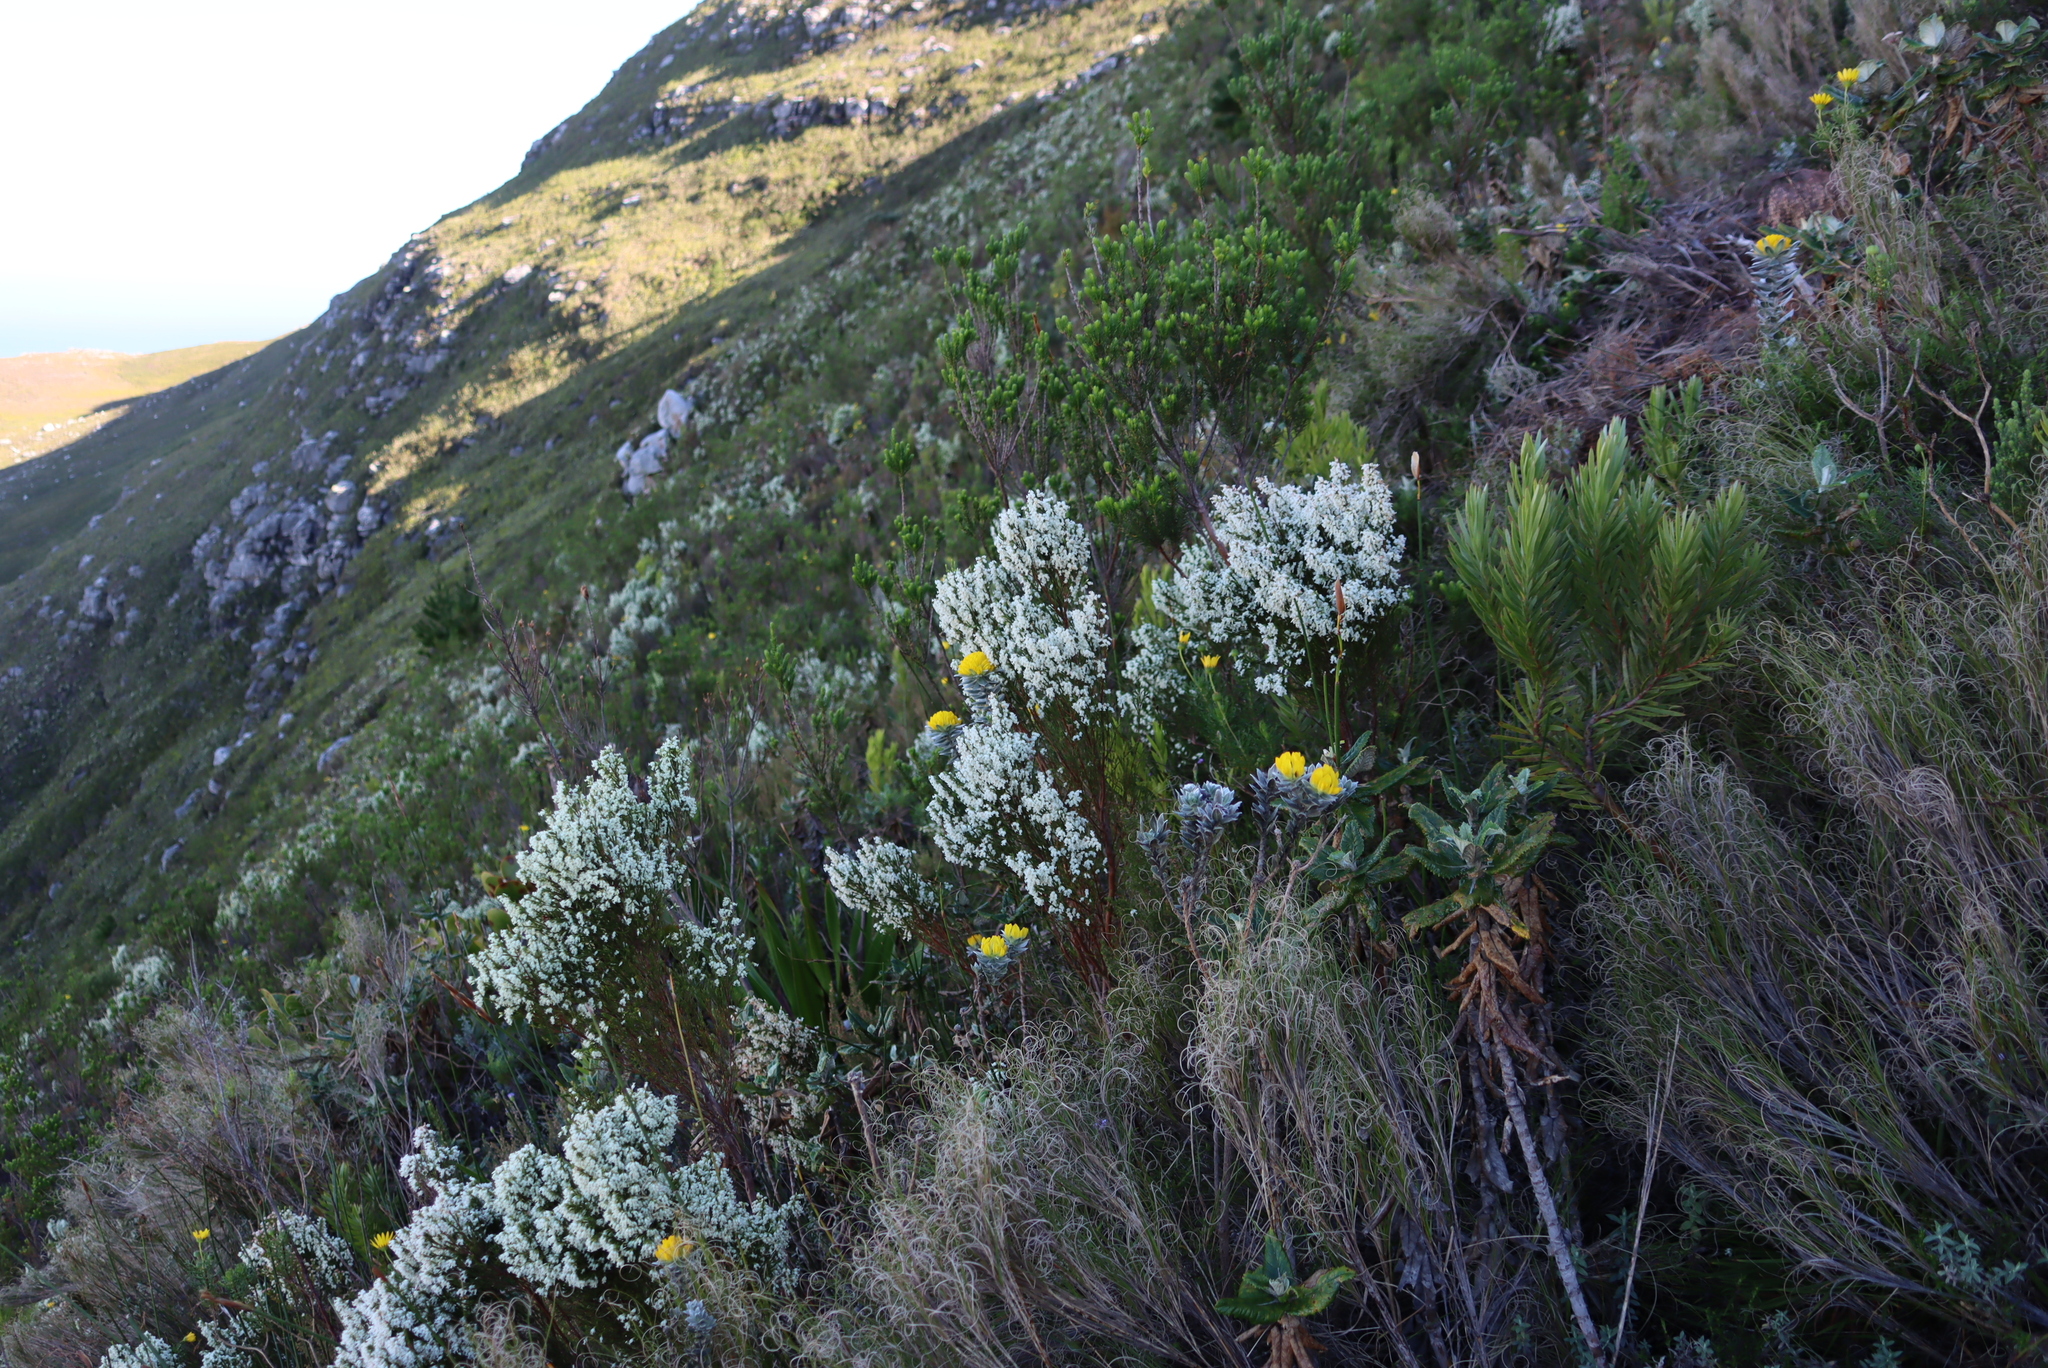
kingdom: Plantae
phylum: Tracheophyta
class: Magnoliopsida
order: Fabales
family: Fabaceae
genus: Xiphotheca
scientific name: Xiphotheca fruticosa
